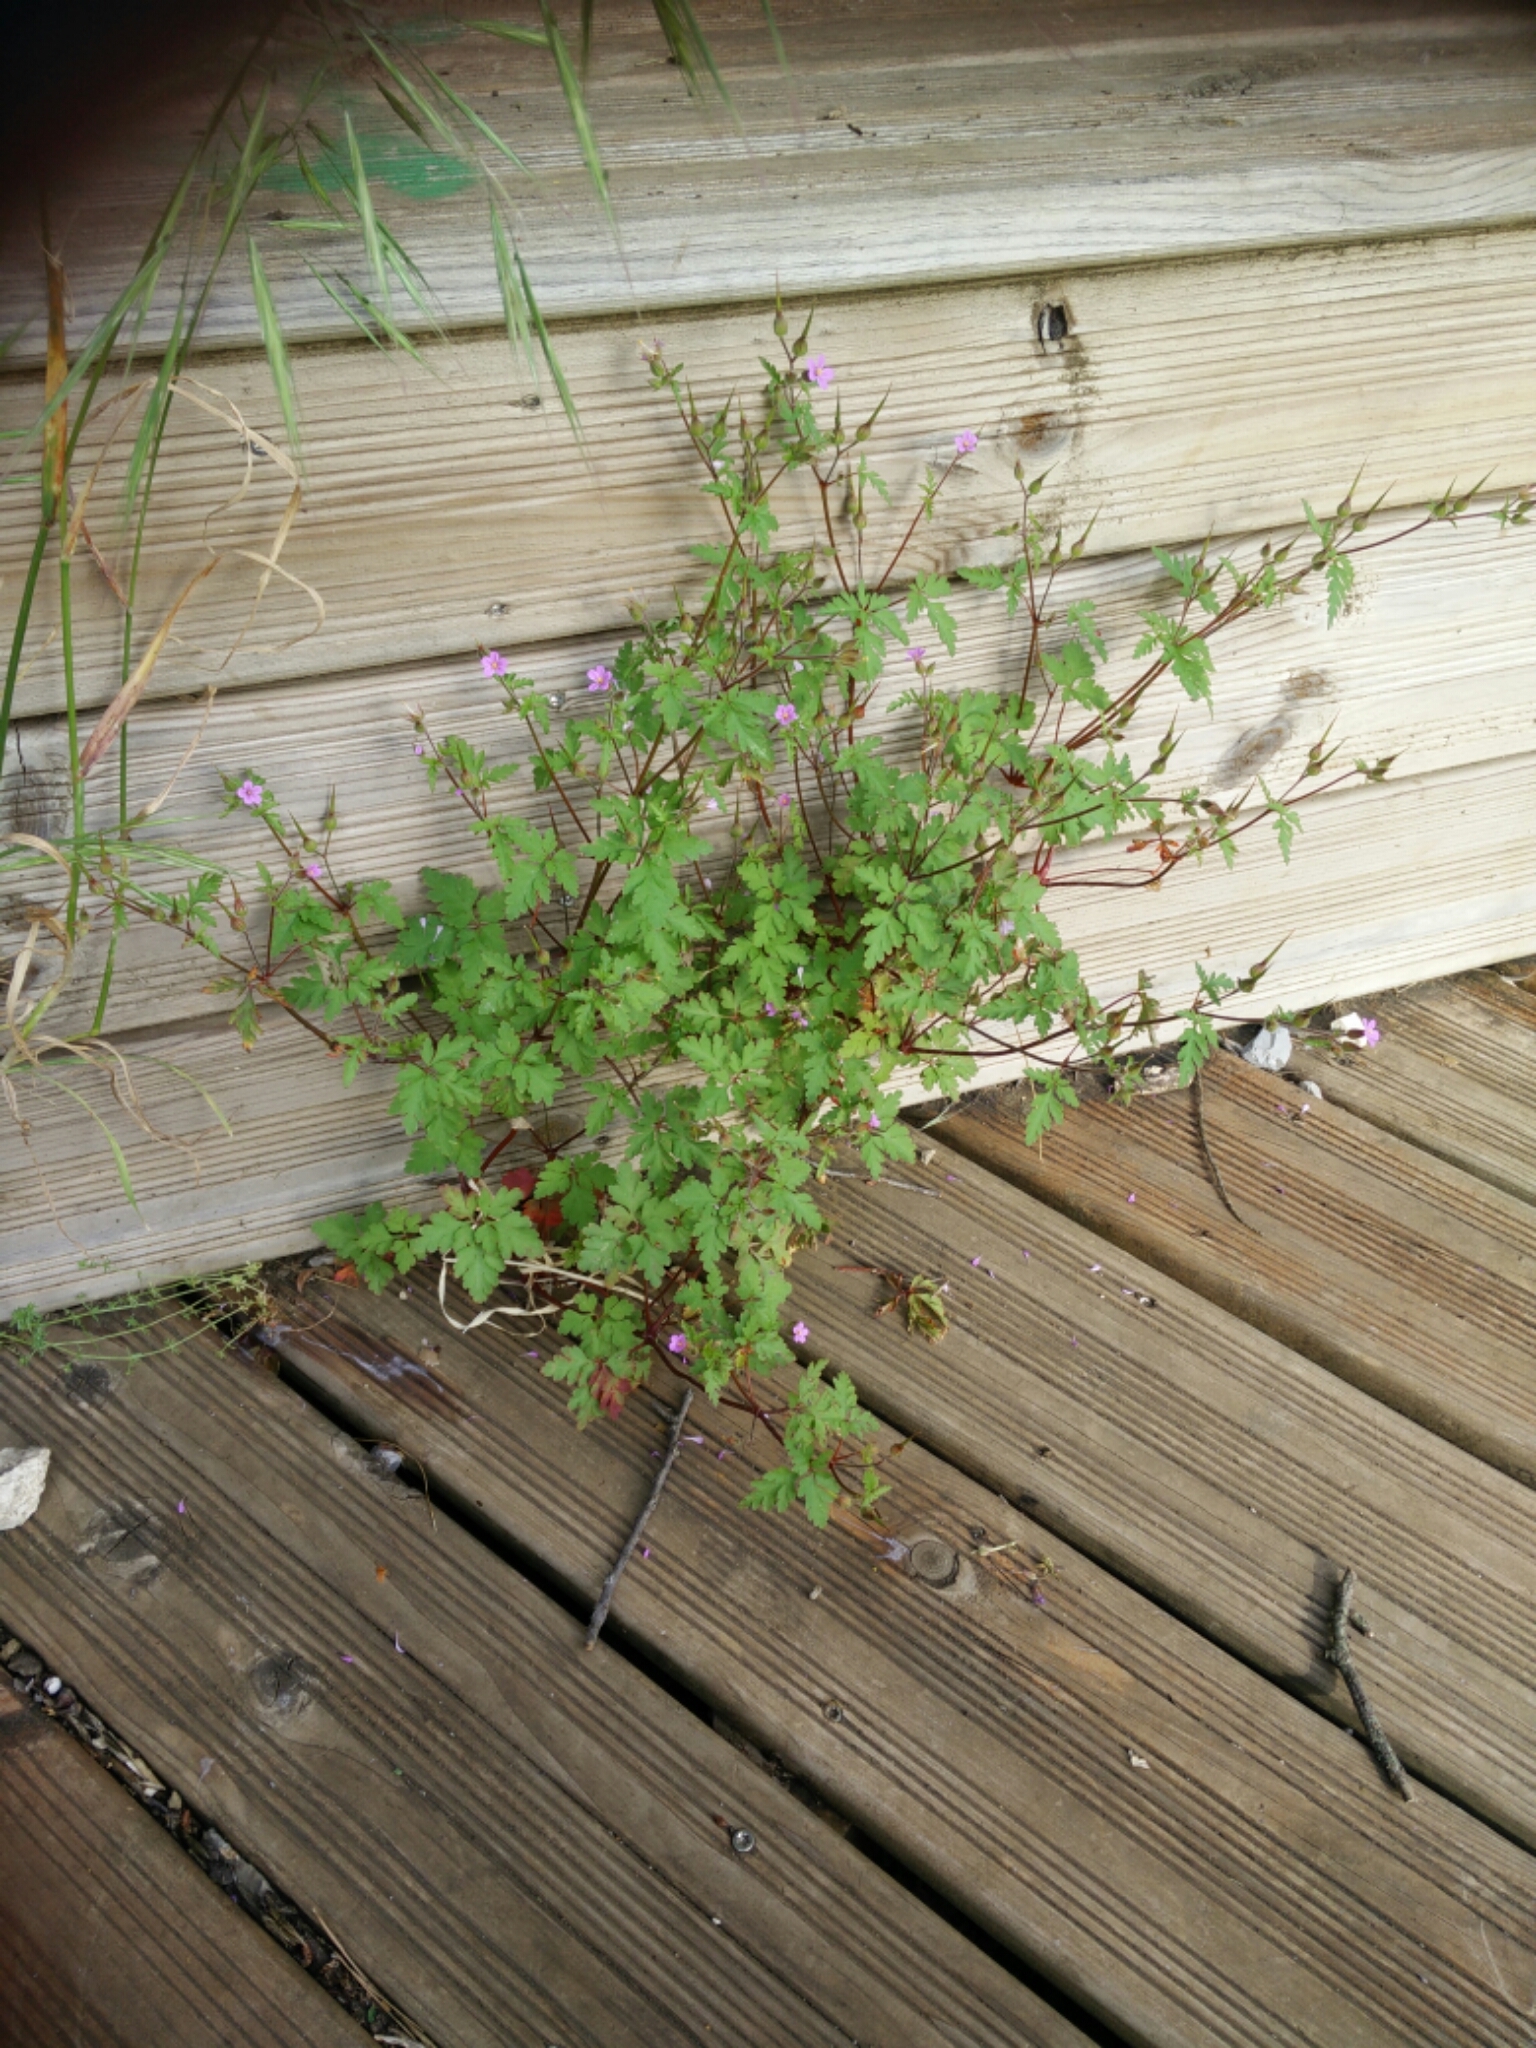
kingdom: Plantae
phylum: Tracheophyta
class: Magnoliopsida
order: Geraniales
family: Geraniaceae
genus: Geranium
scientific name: Geranium robertianum
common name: Herb-robert
